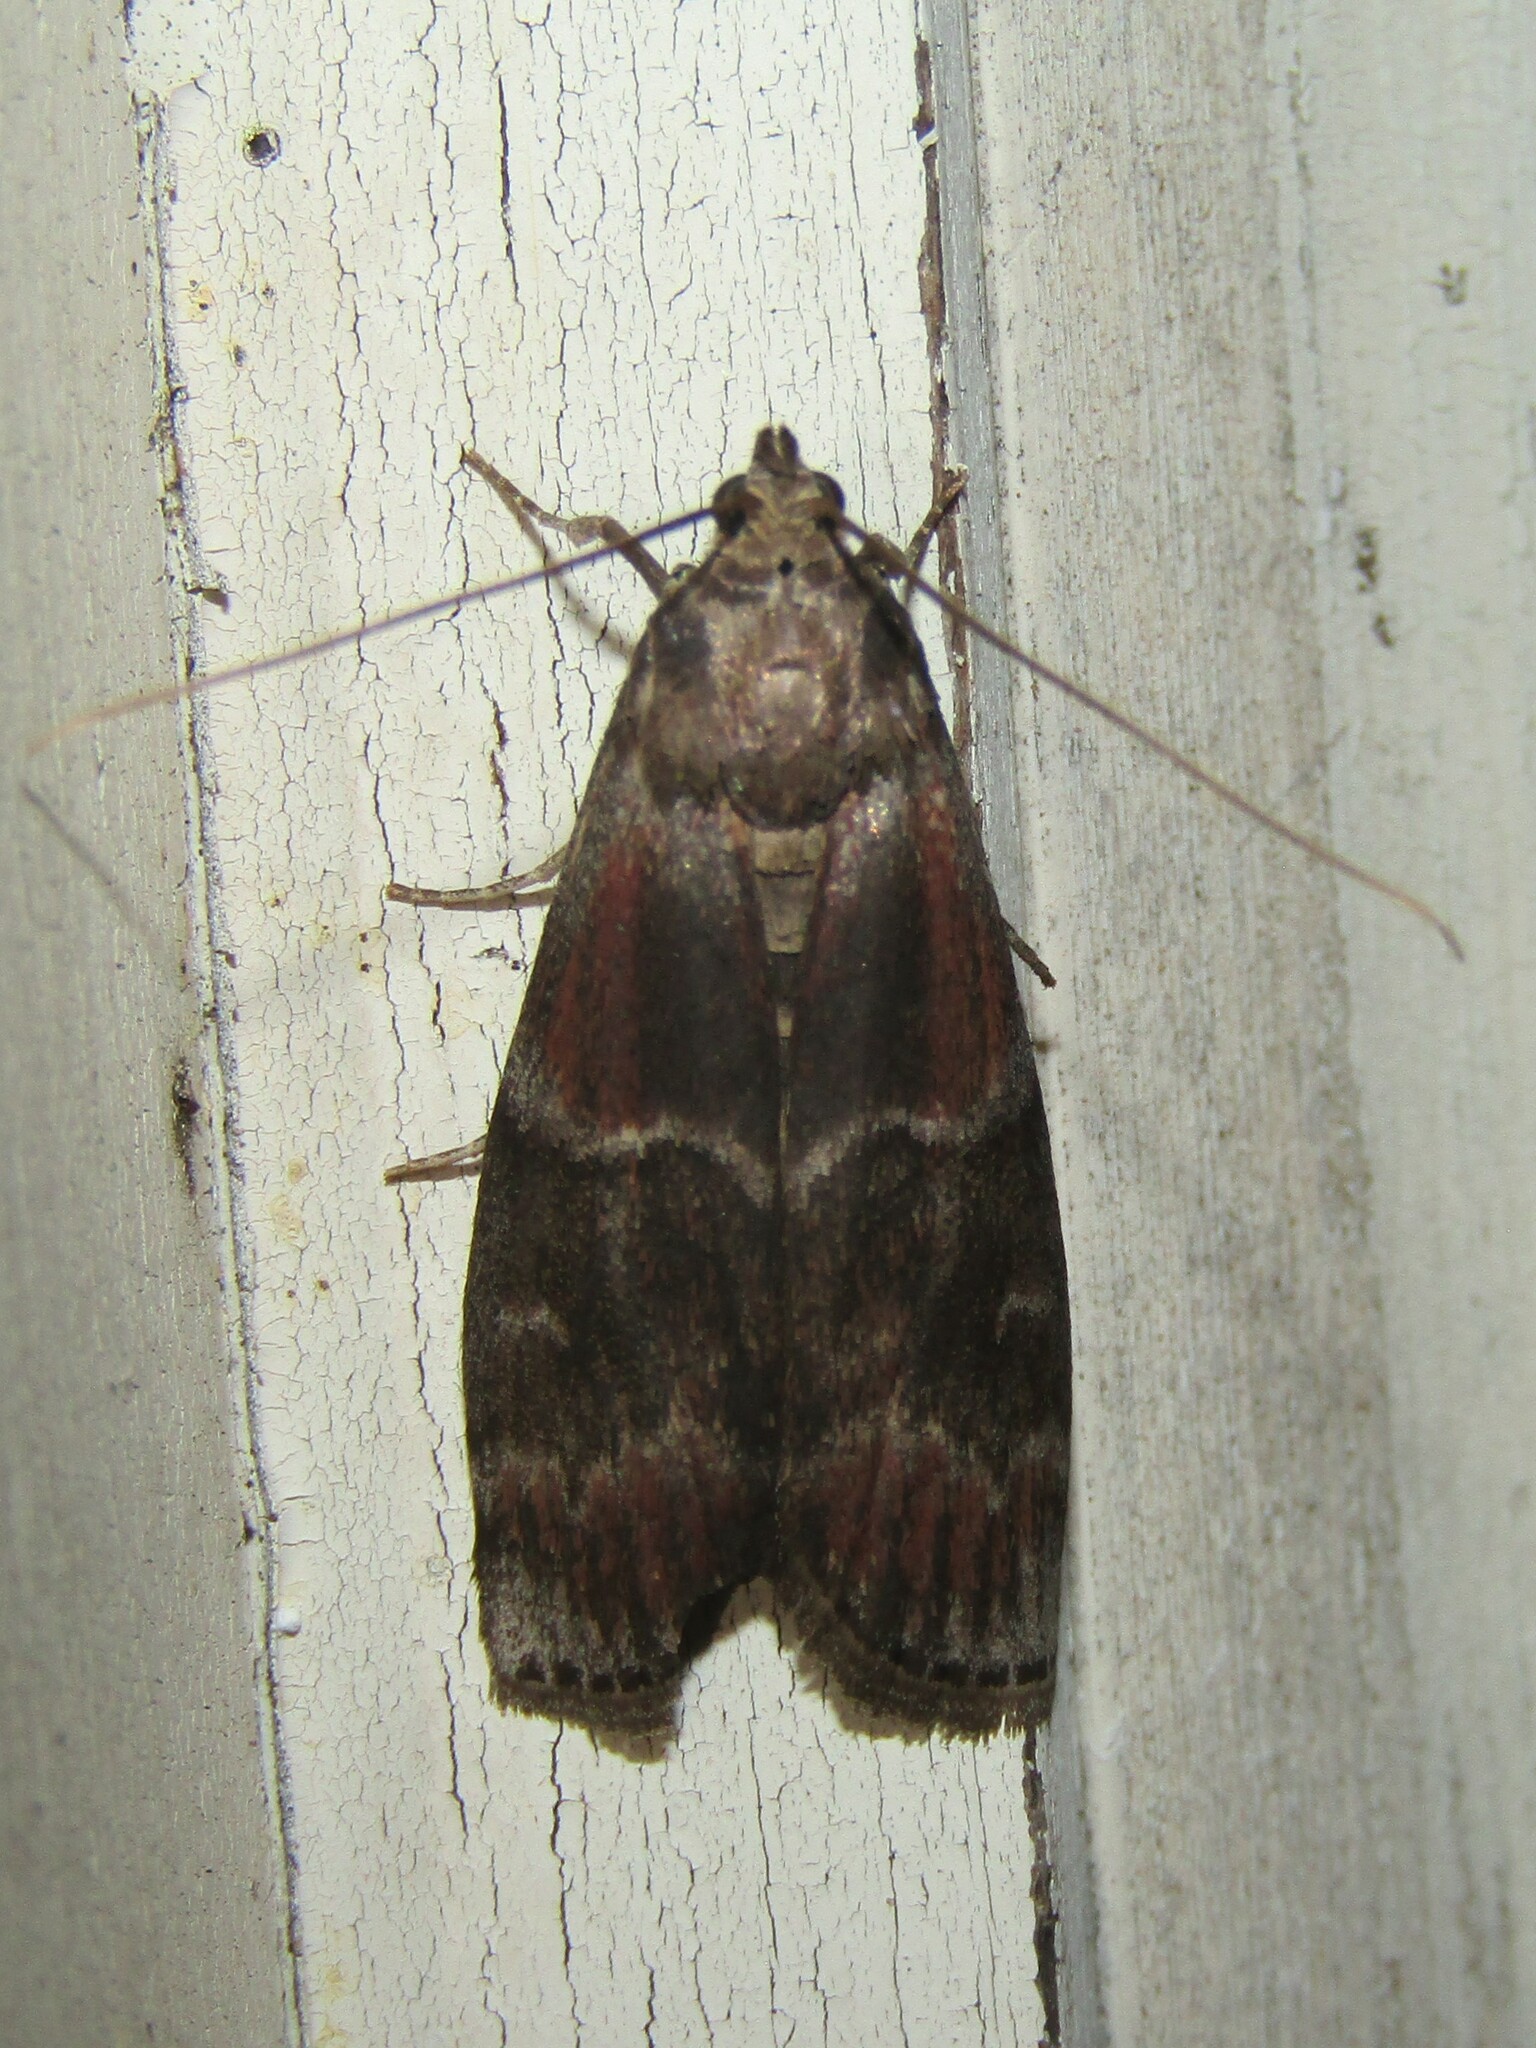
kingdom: Animalia
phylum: Arthropoda
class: Insecta
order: Lepidoptera
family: Pyralidae
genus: Euzophera
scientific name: Euzophera ostricolorella
